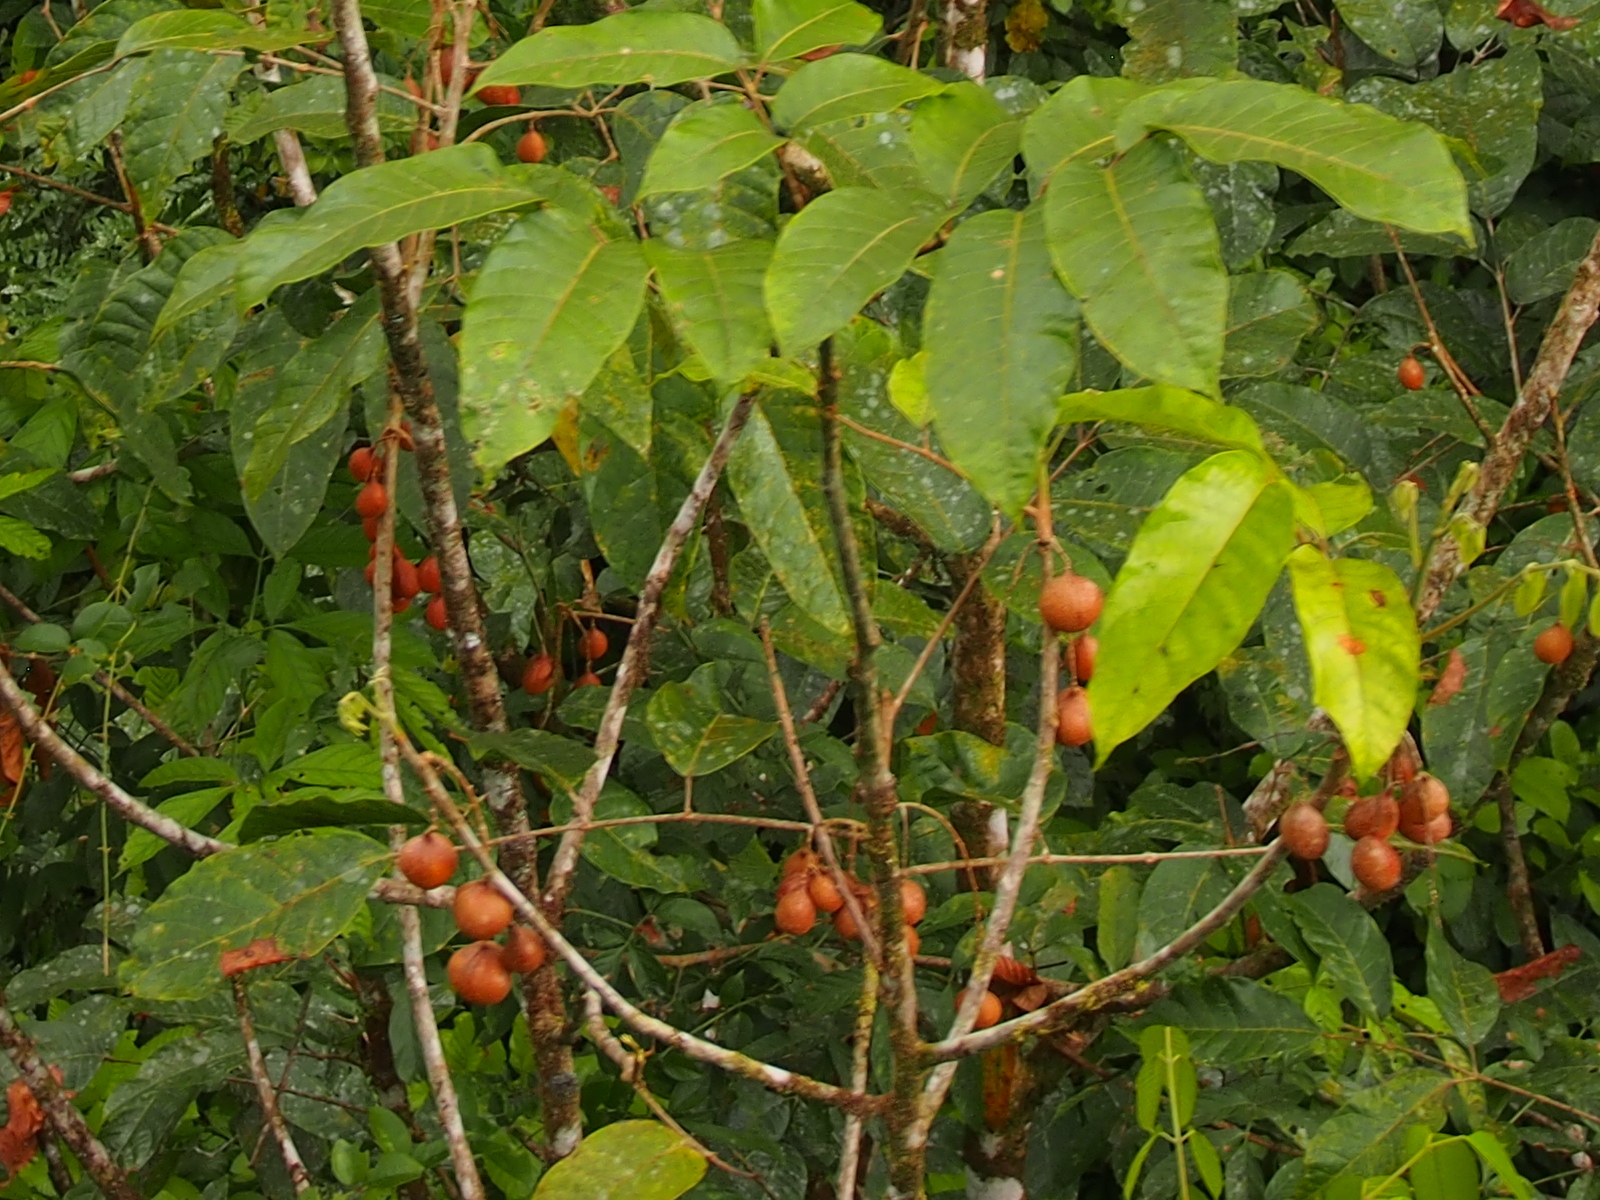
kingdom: Plantae
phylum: Tracheophyta
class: Magnoliopsida
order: Sapindales
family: Burseraceae
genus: Protium
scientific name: Protium pittieri
